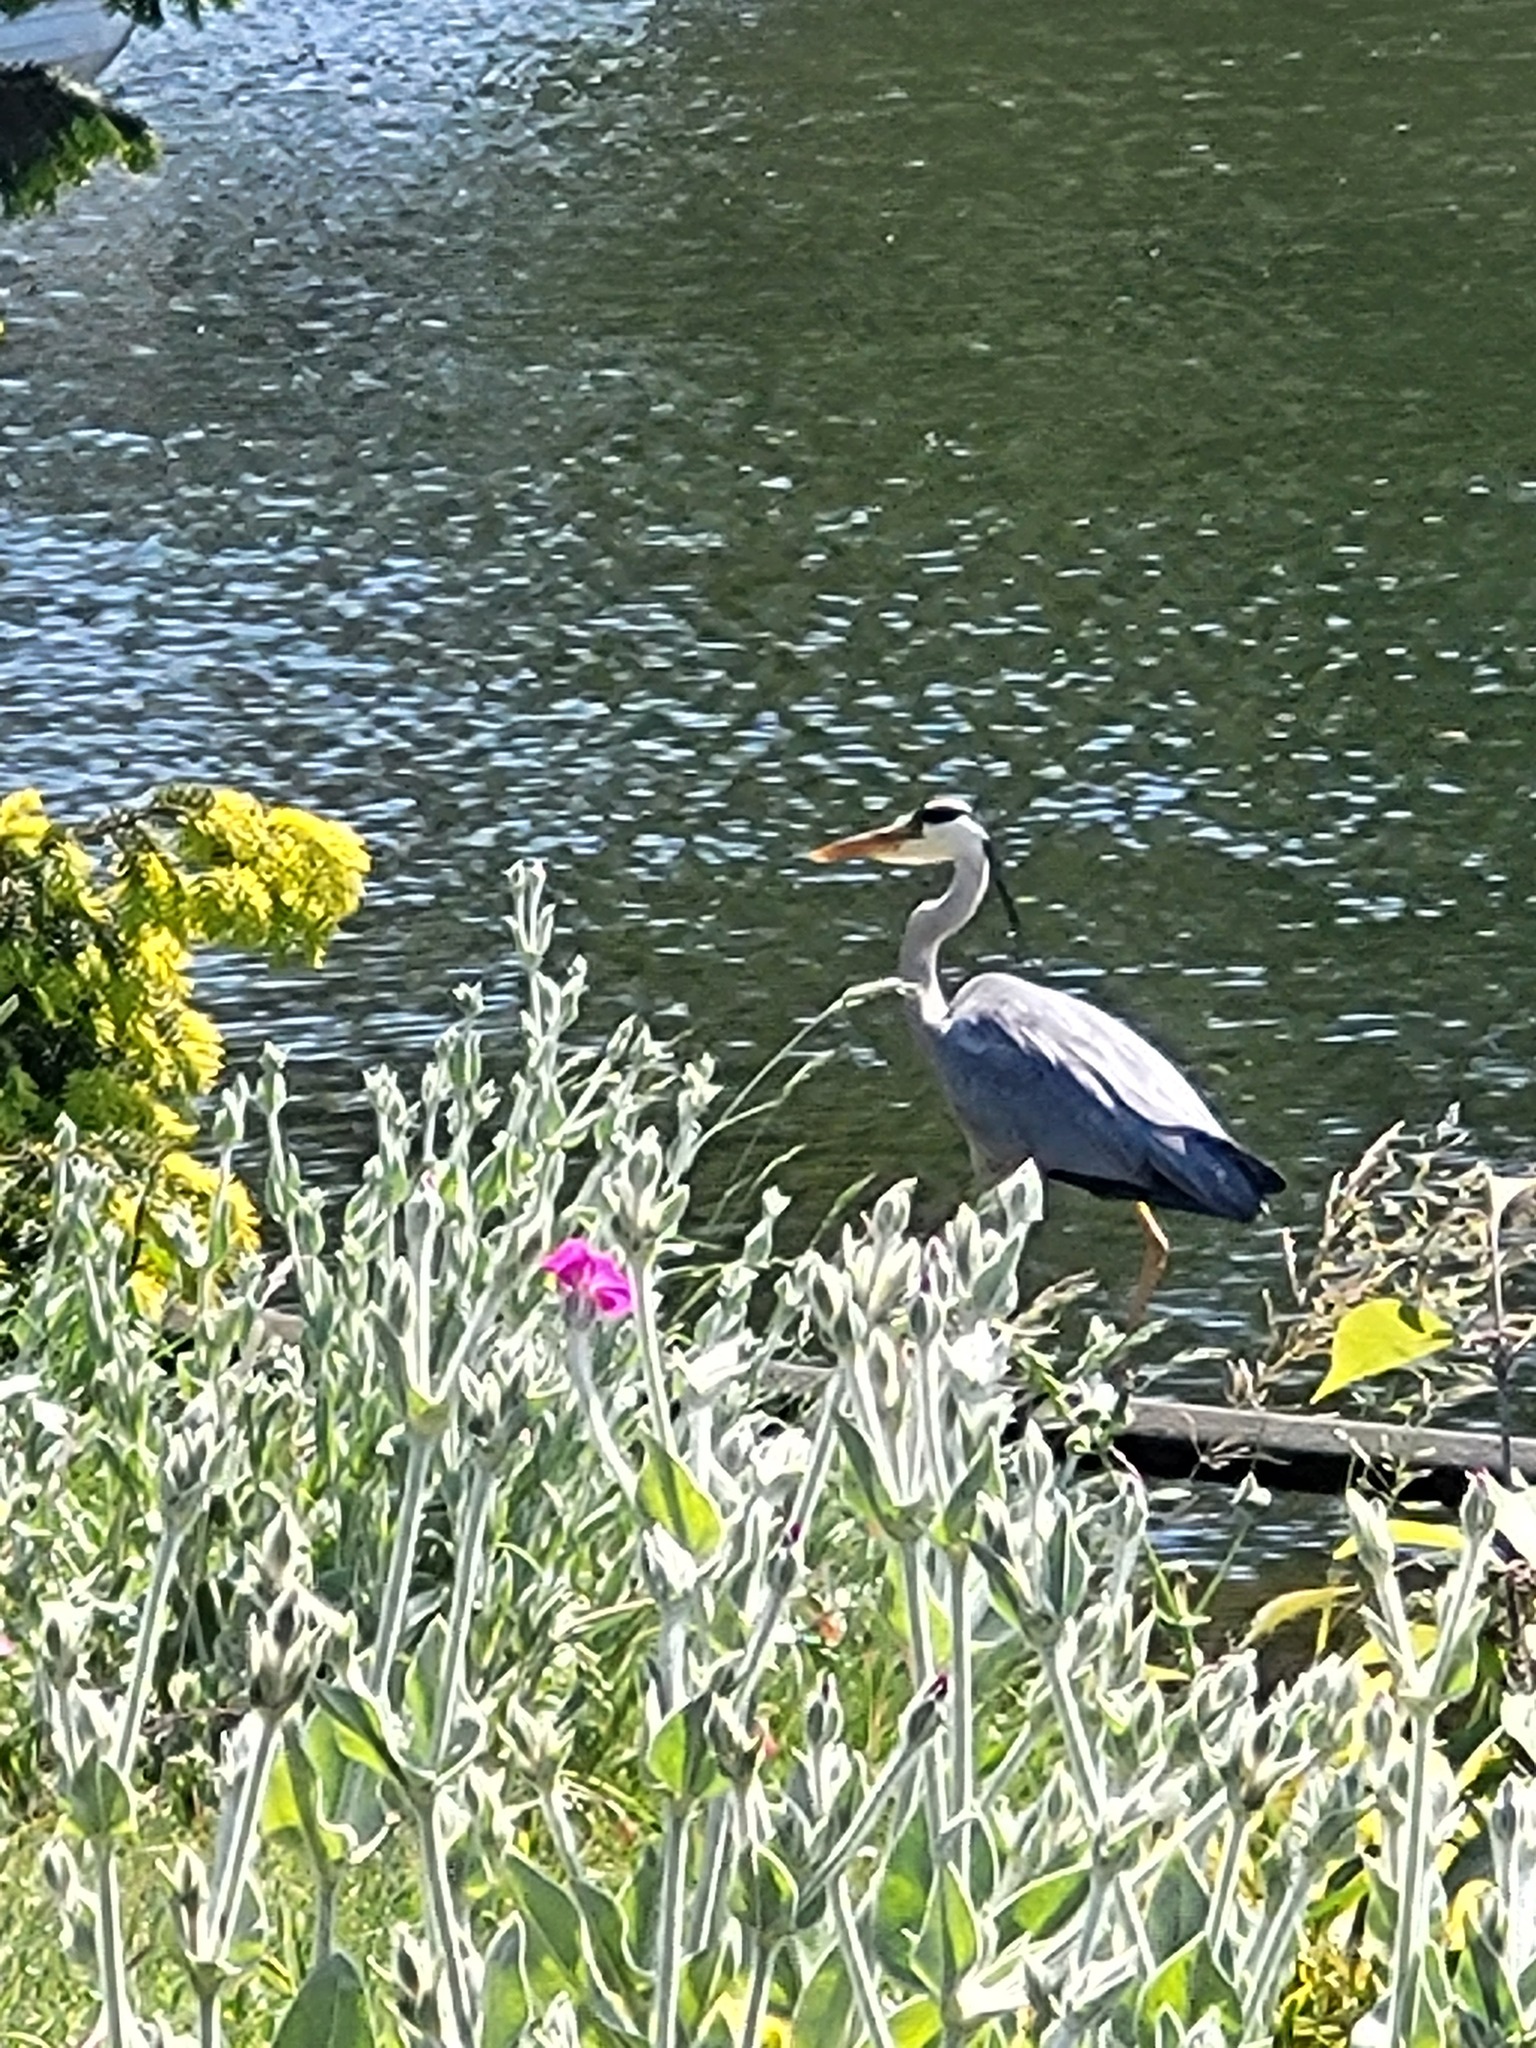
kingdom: Animalia
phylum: Chordata
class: Aves
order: Pelecaniformes
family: Ardeidae
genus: Ardea
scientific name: Ardea cinerea
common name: Grey heron
